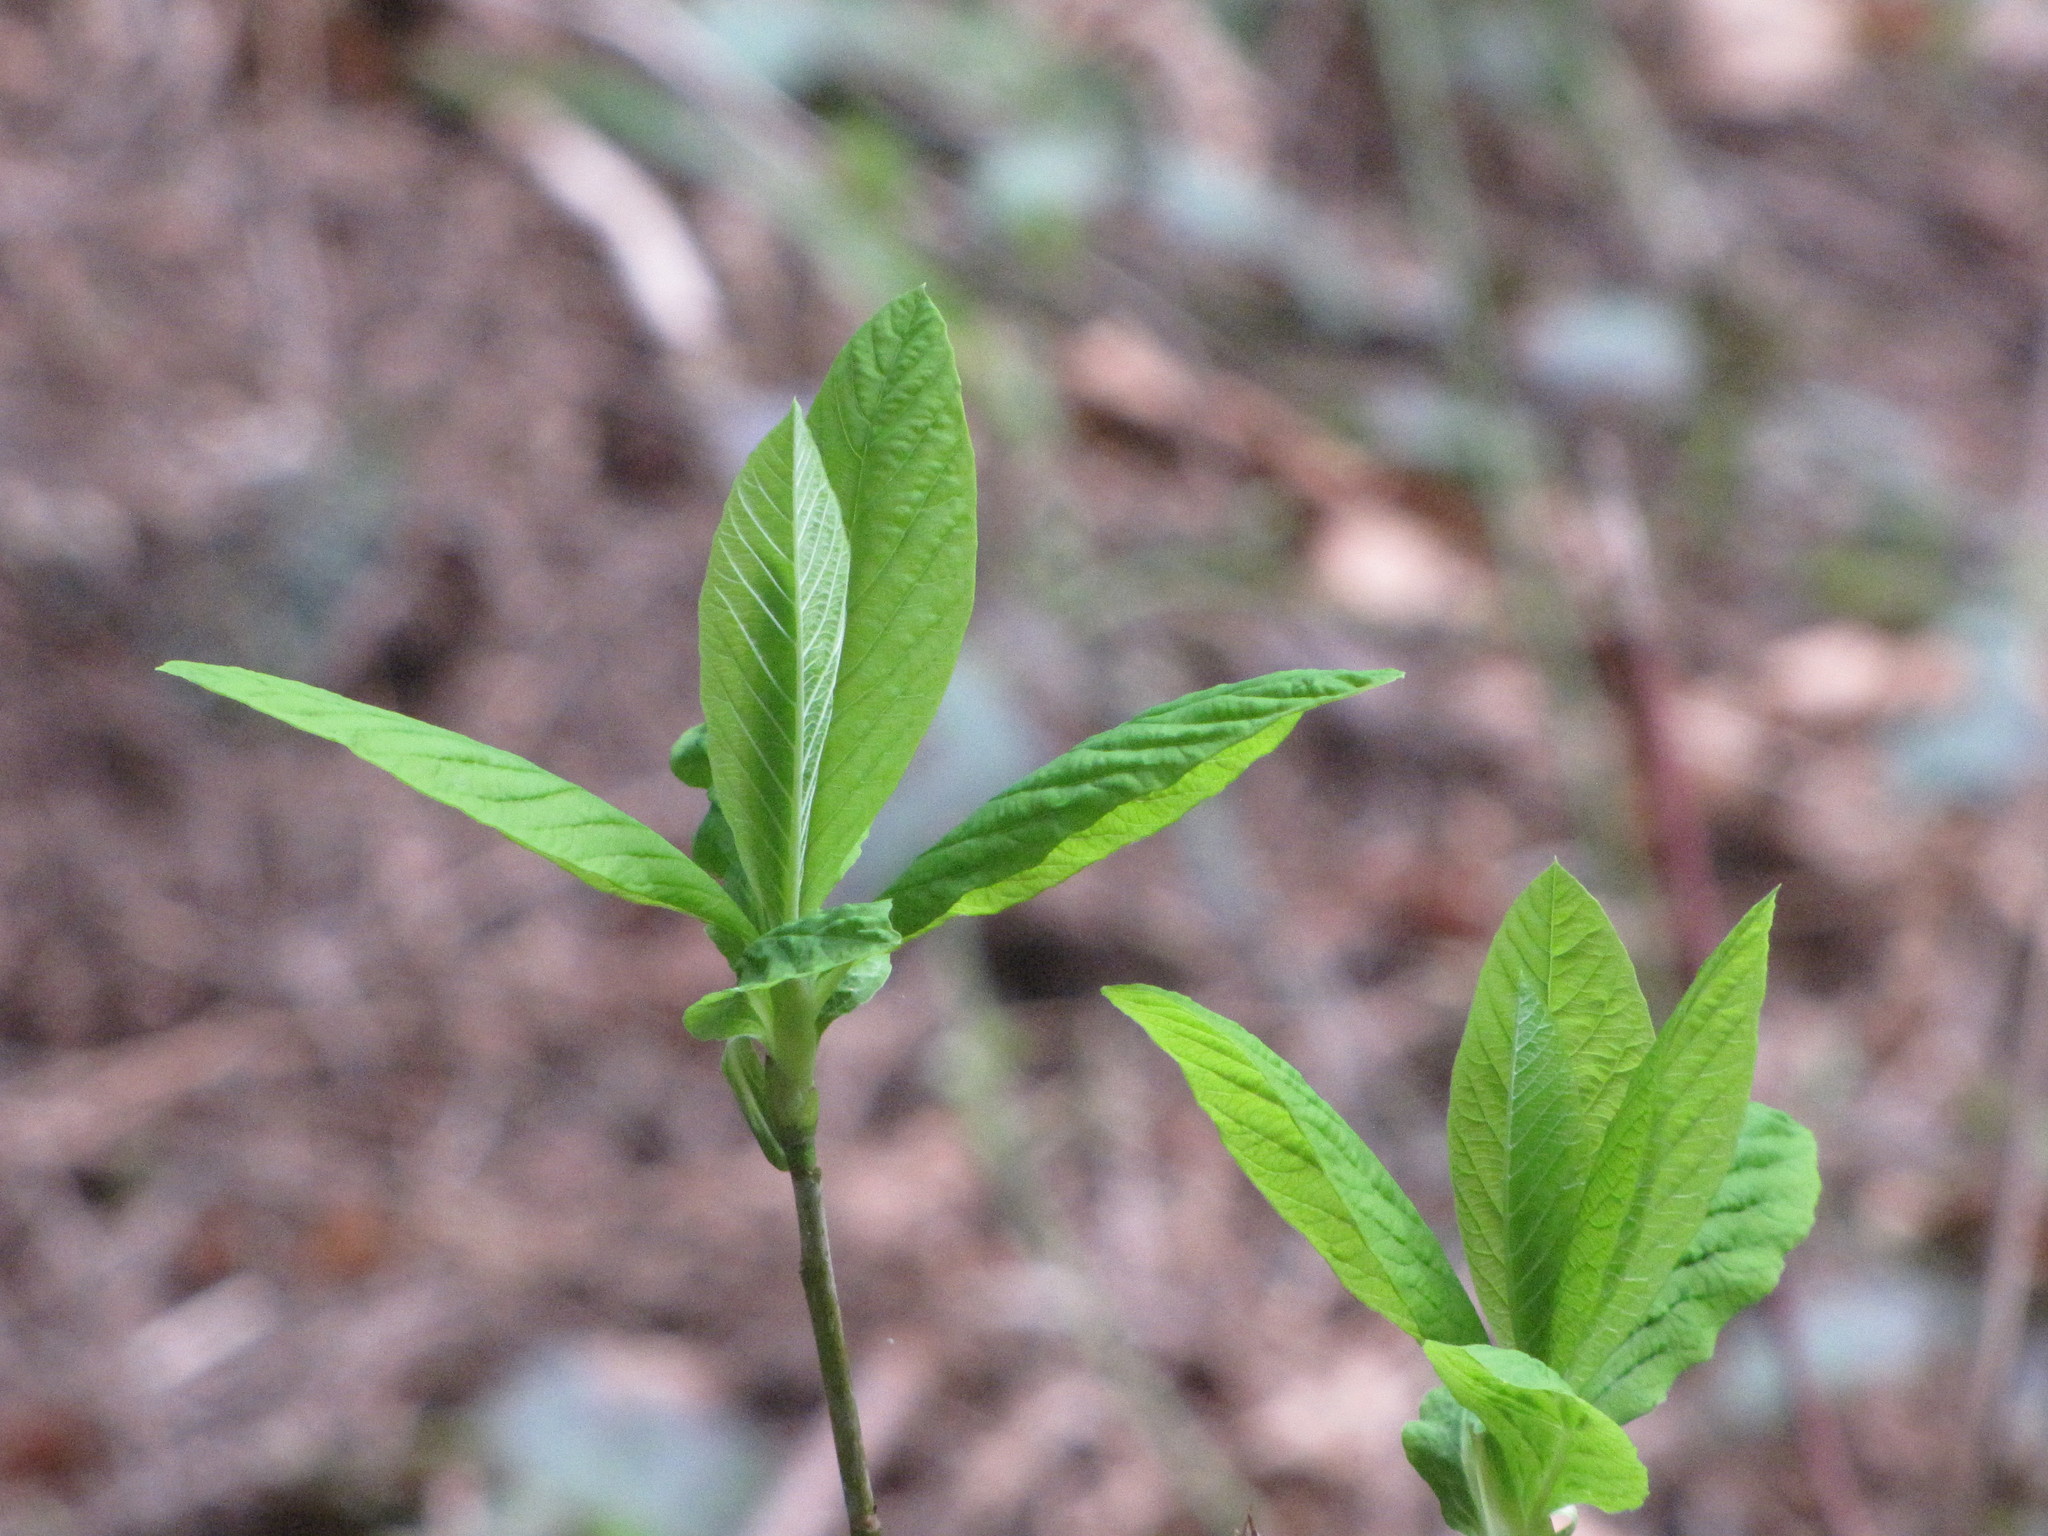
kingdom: Plantae
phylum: Tracheophyta
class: Magnoliopsida
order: Rosales
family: Rosaceae
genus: Oemleria
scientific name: Oemleria cerasiformis
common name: Osoberry
